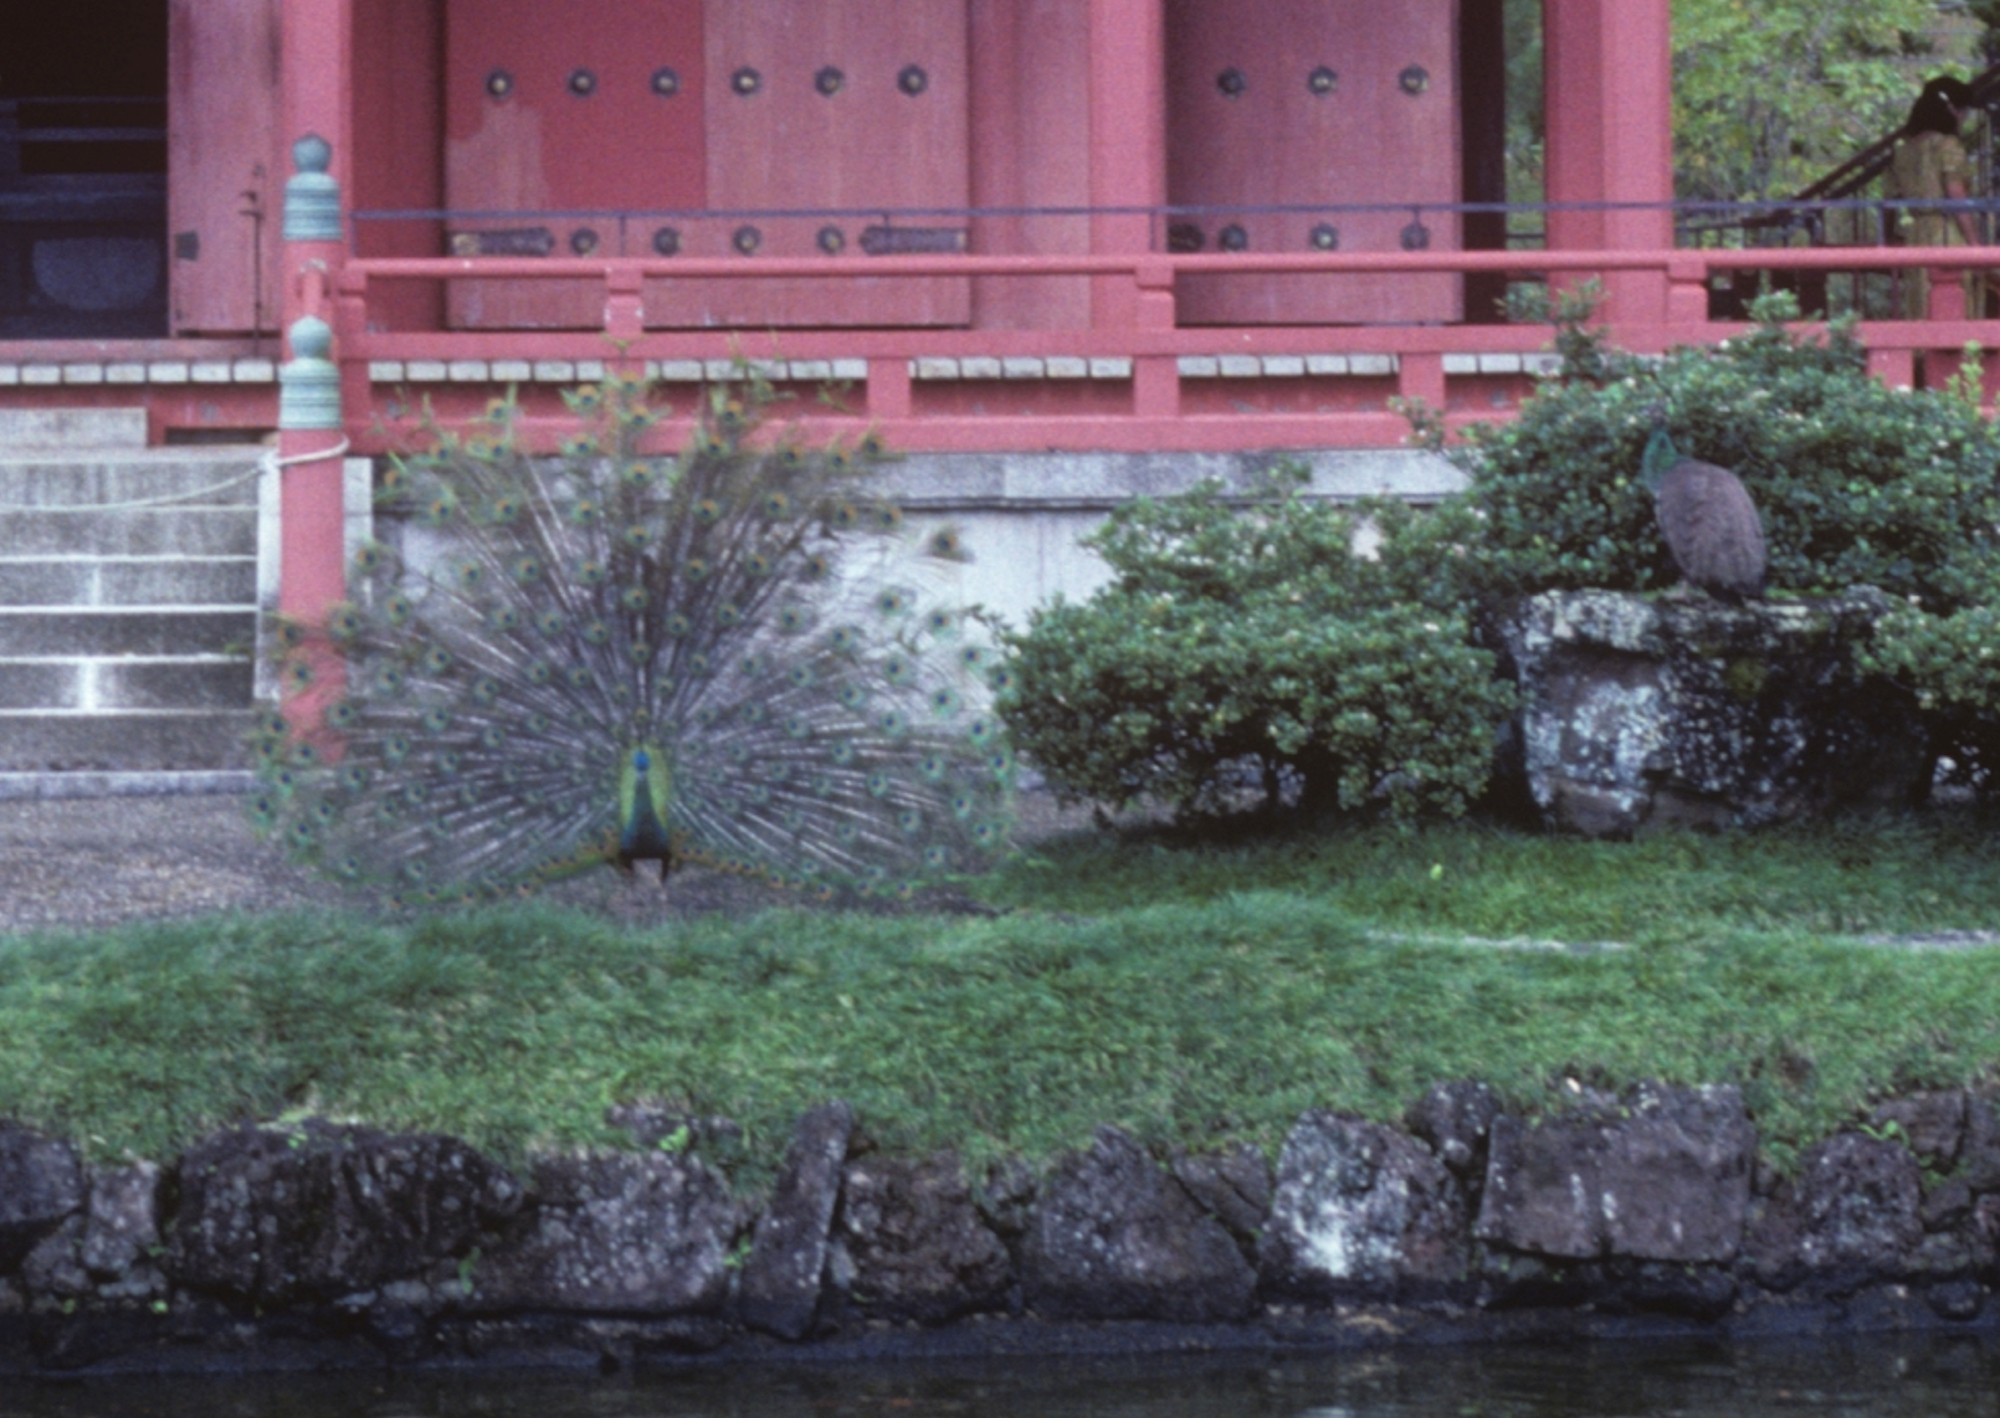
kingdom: Animalia
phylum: Chordata
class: Aves
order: Galliformes
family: Phasianidae
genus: Pavo
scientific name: Pavo cristatus
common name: Indian peafowl
